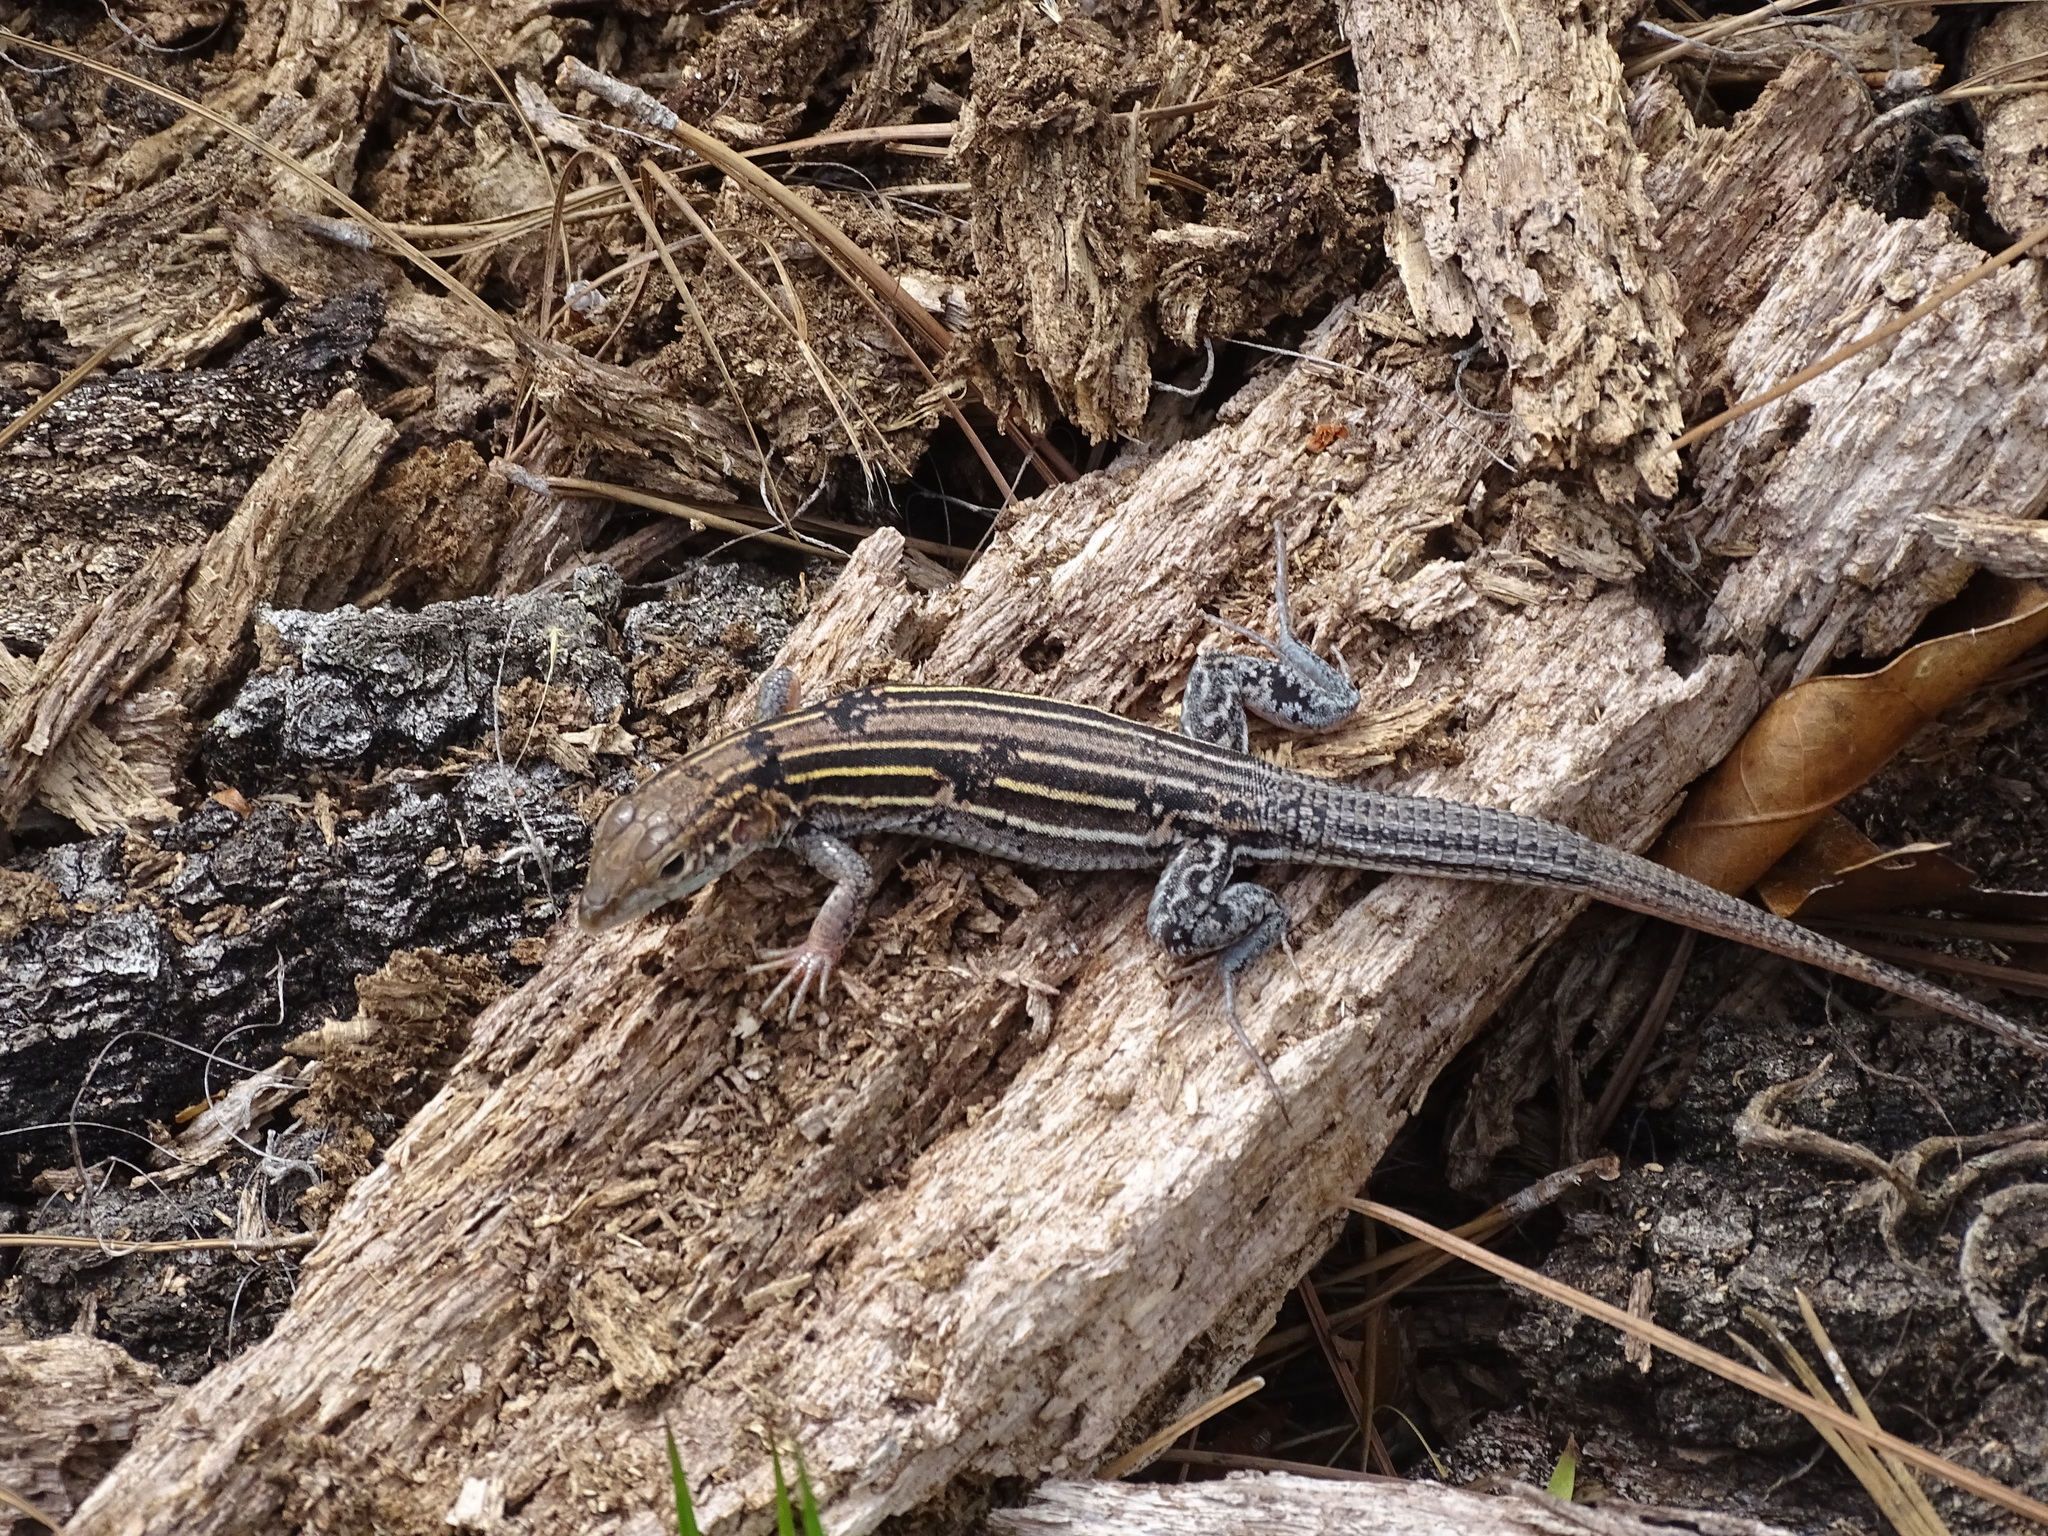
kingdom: Animalia
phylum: Chordata
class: Squamata
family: Teiidae
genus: Aspidoscelis
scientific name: Aspidoscelis sexlineatus
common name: Six-lined racerunner
